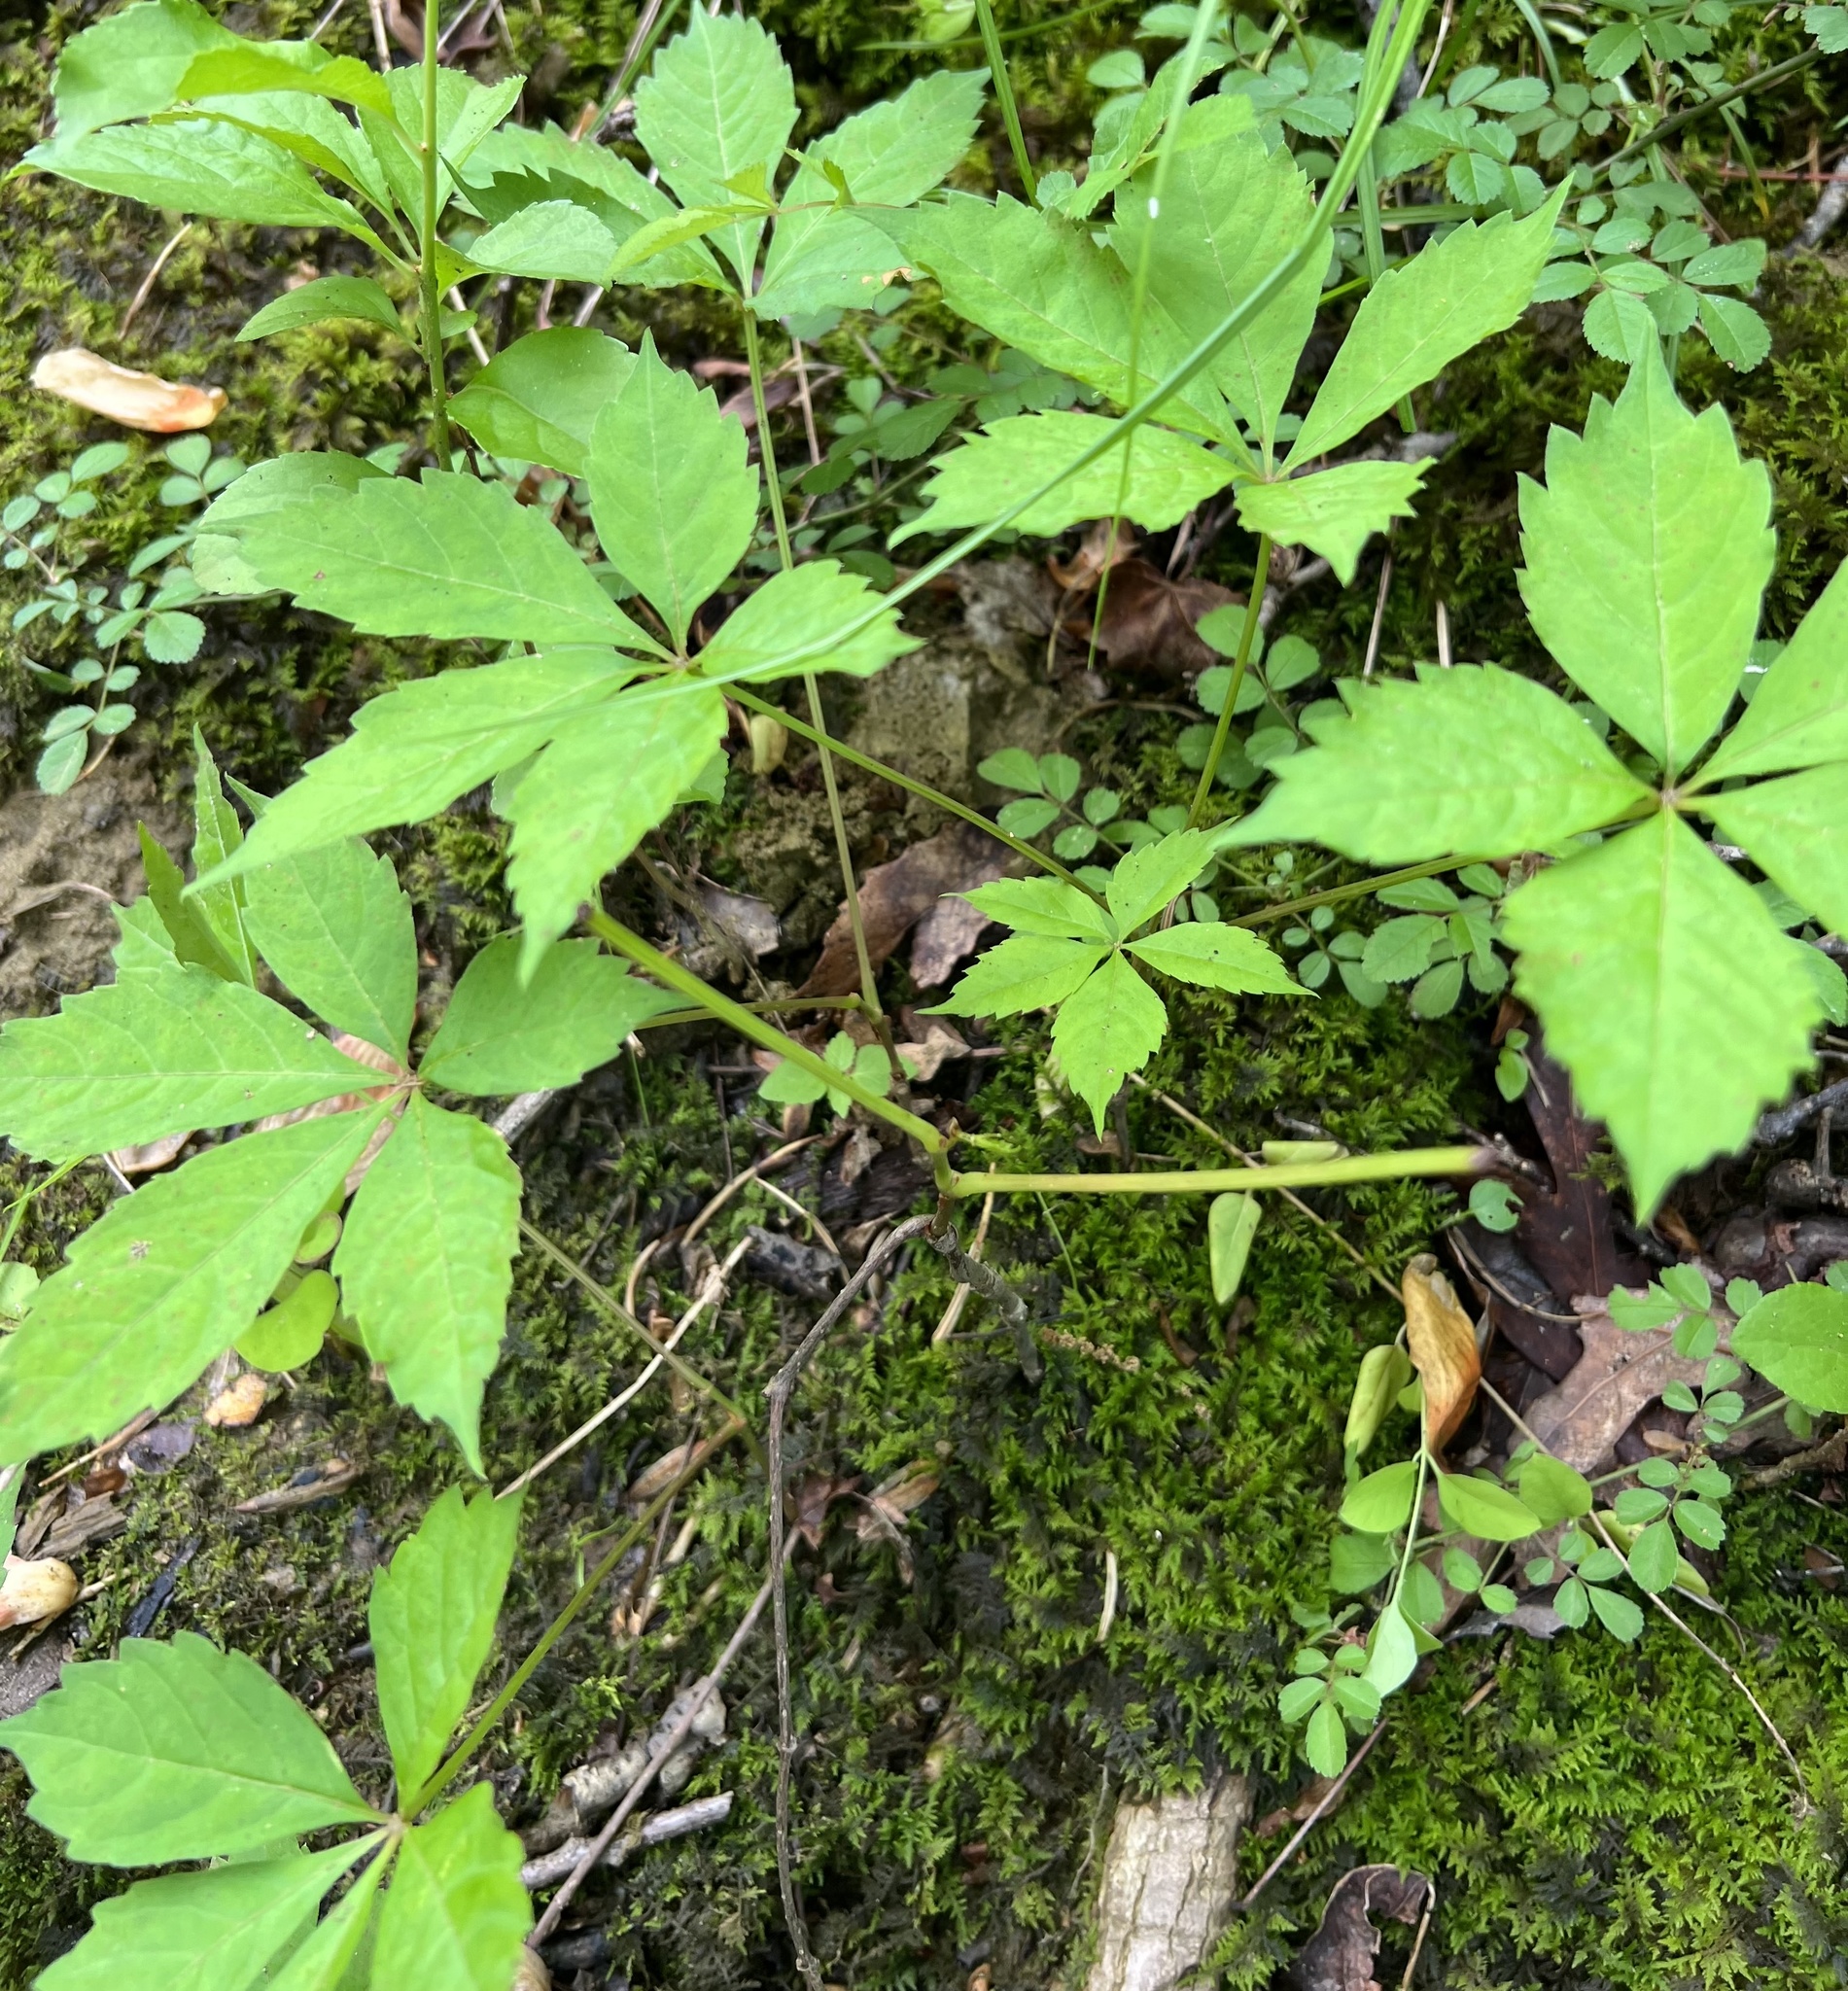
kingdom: Plantae
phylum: Tracheophyta
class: Magnoliopsida
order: Vitales
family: Vitaceae
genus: Parthenocissus
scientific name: Parthenocissus quinquefolia
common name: Virginia-creeper
